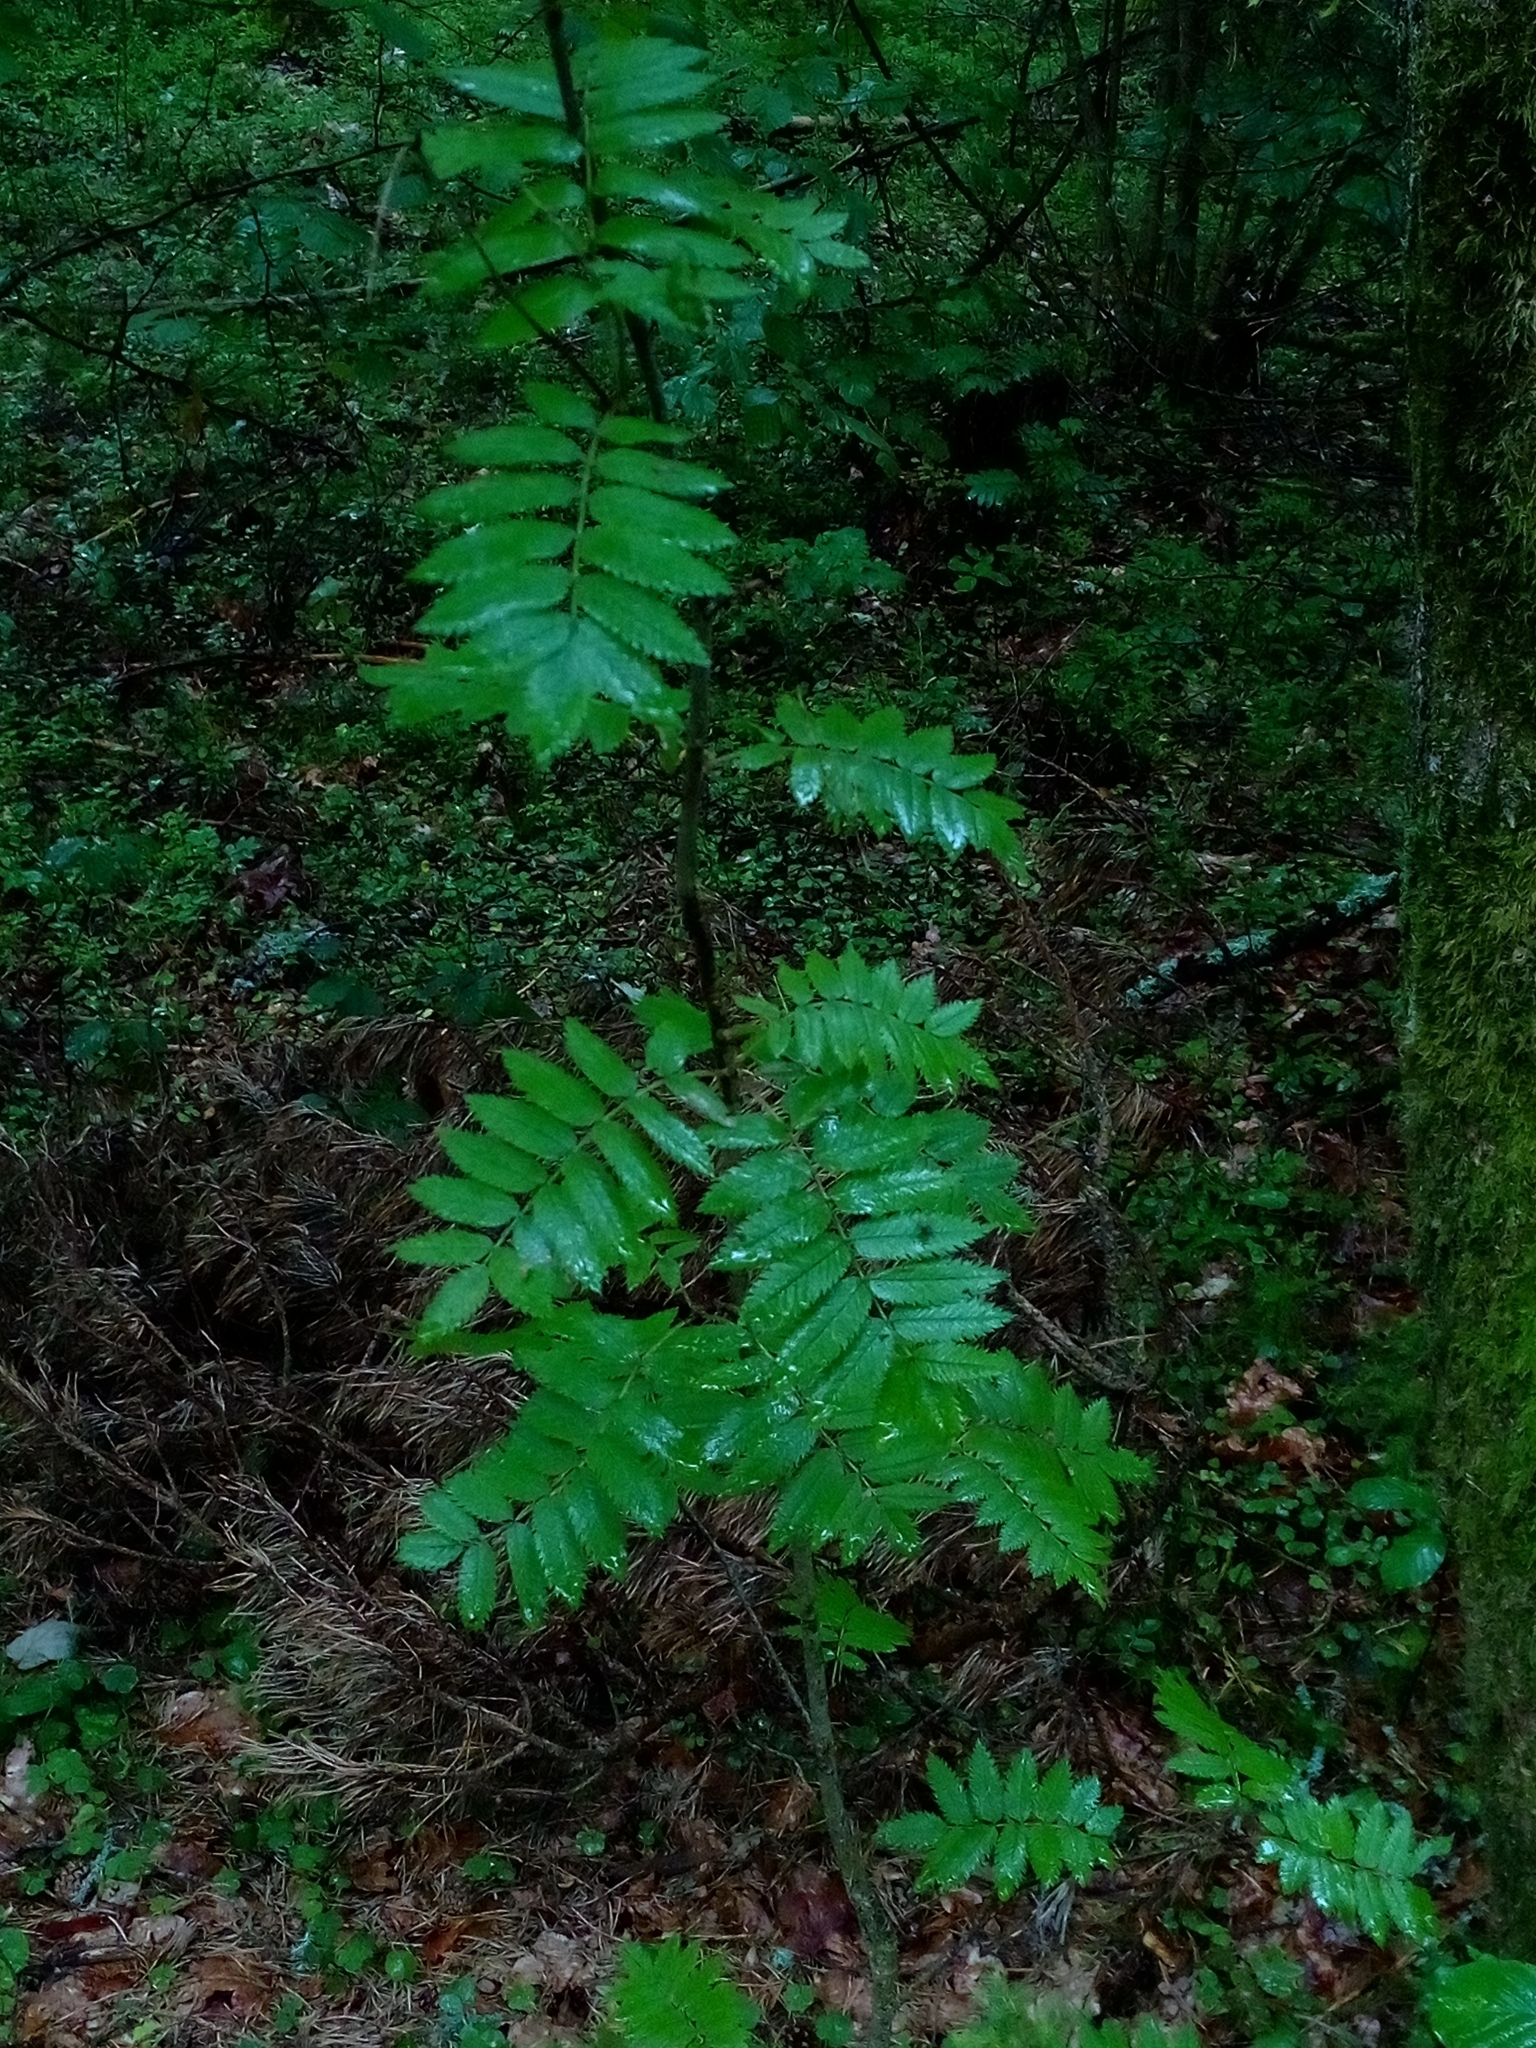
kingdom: Plantae
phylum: Tracheophyta
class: Magnoliopsida
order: Rosales
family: Rosaceae
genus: Sorbus
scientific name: Sorbus aucuparia
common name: Rowan
